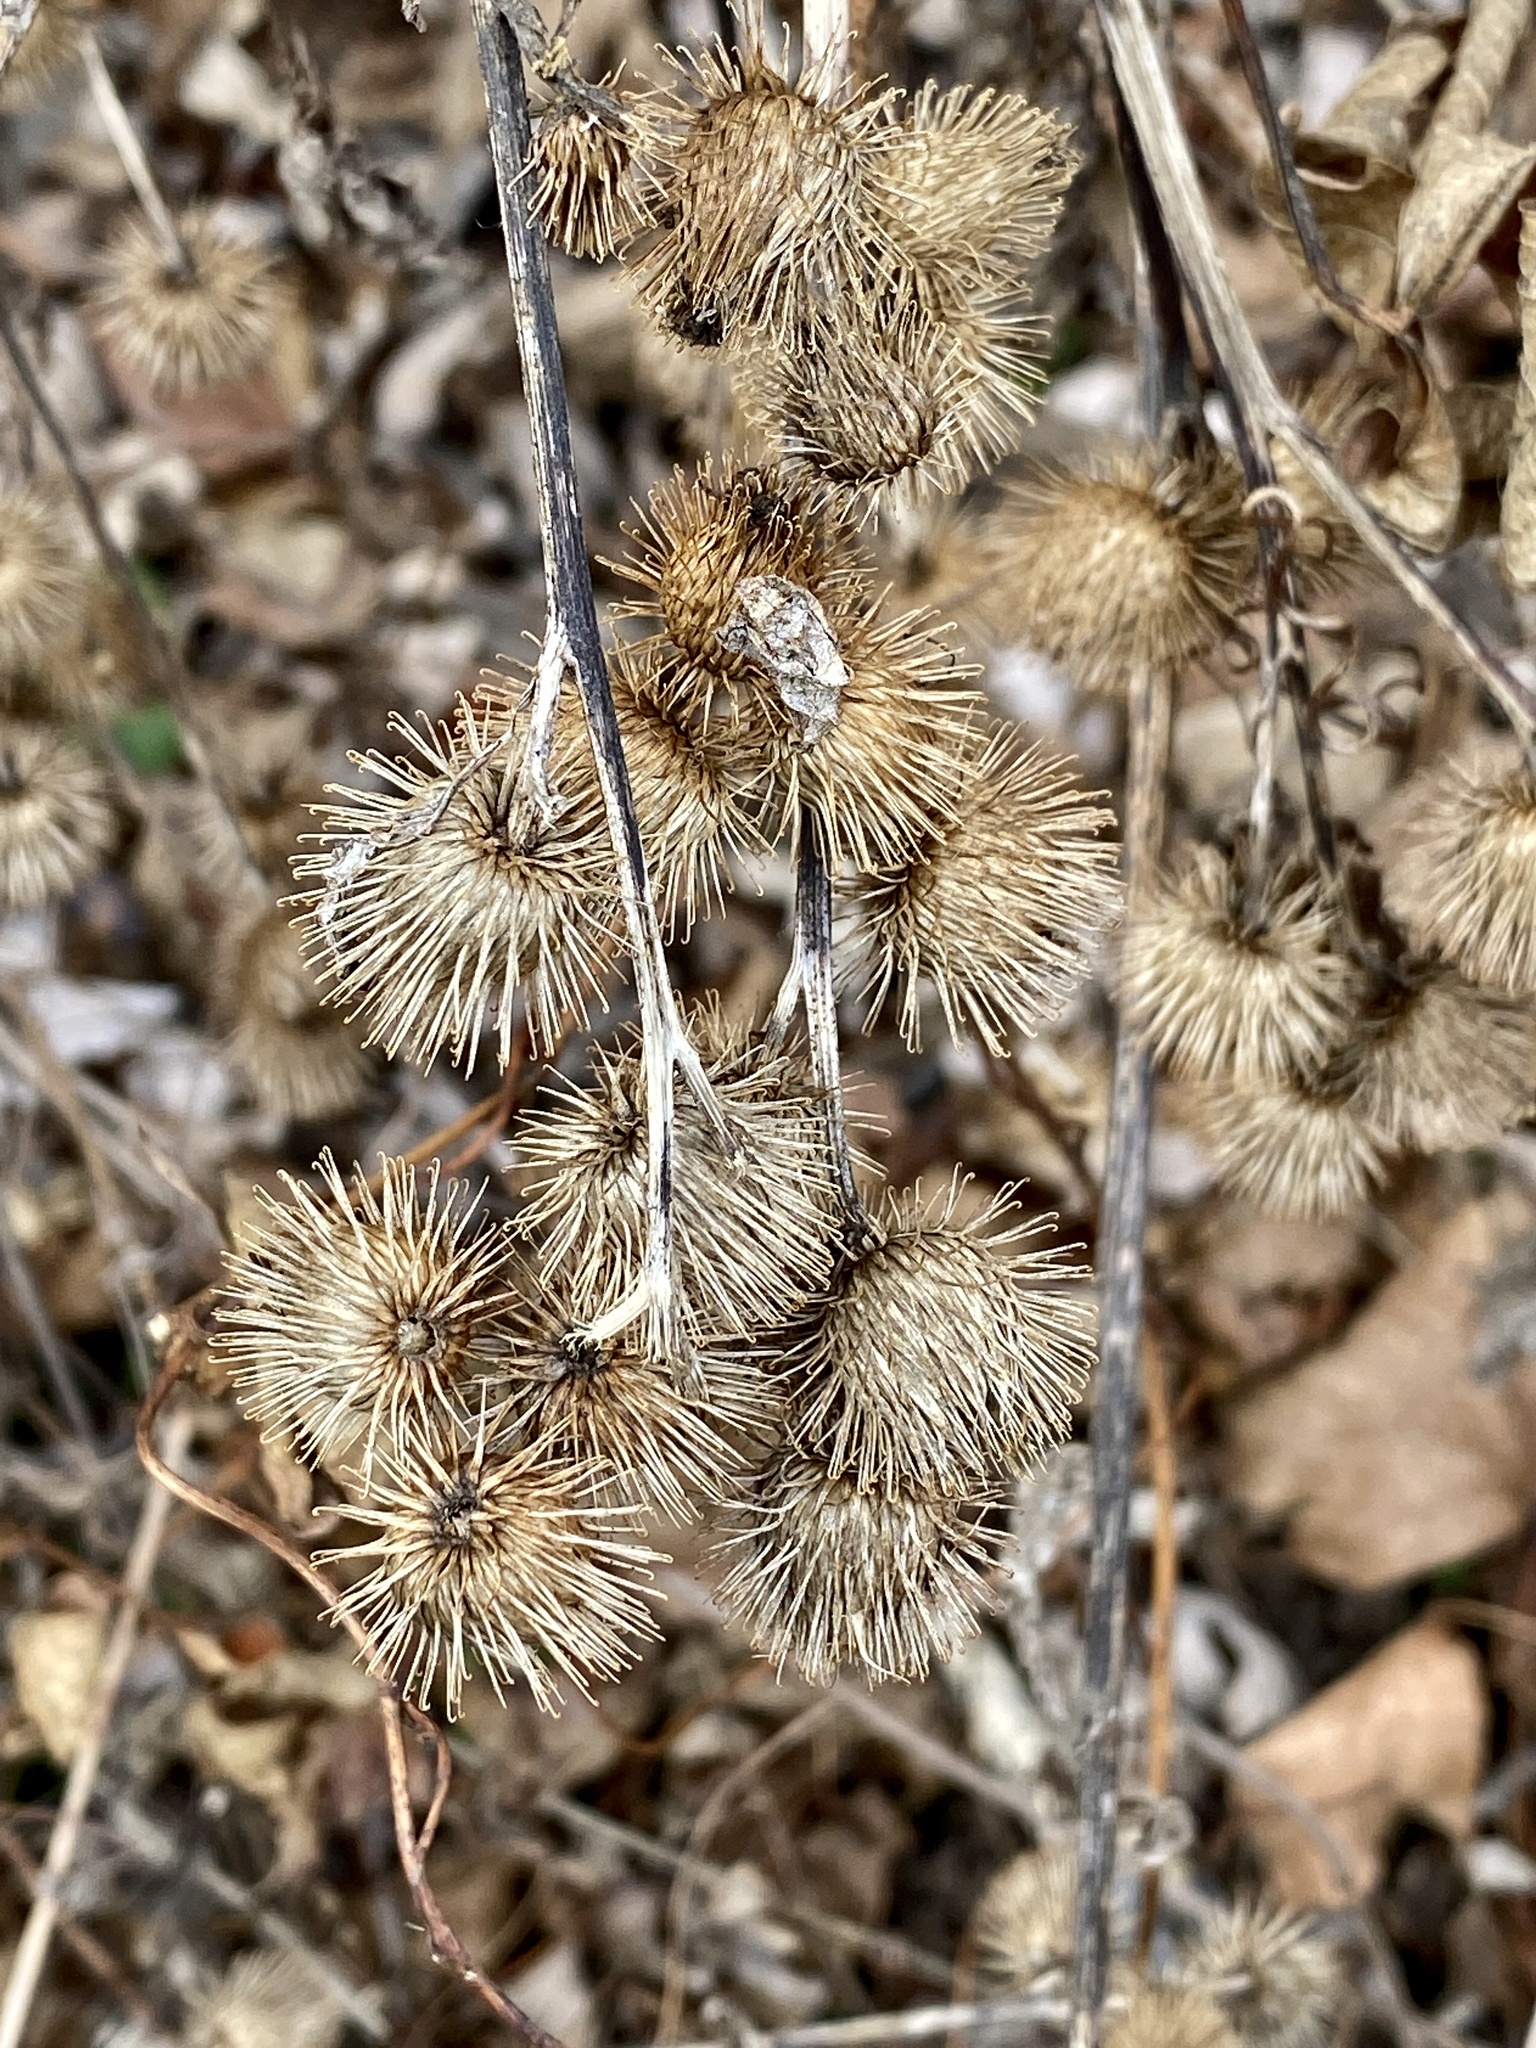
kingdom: Plantae
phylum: Tracheophyta
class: Magnoliopsida
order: Asterales
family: Asteraceae
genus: Arctium
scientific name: Arctium minus
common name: Lesser burdock
